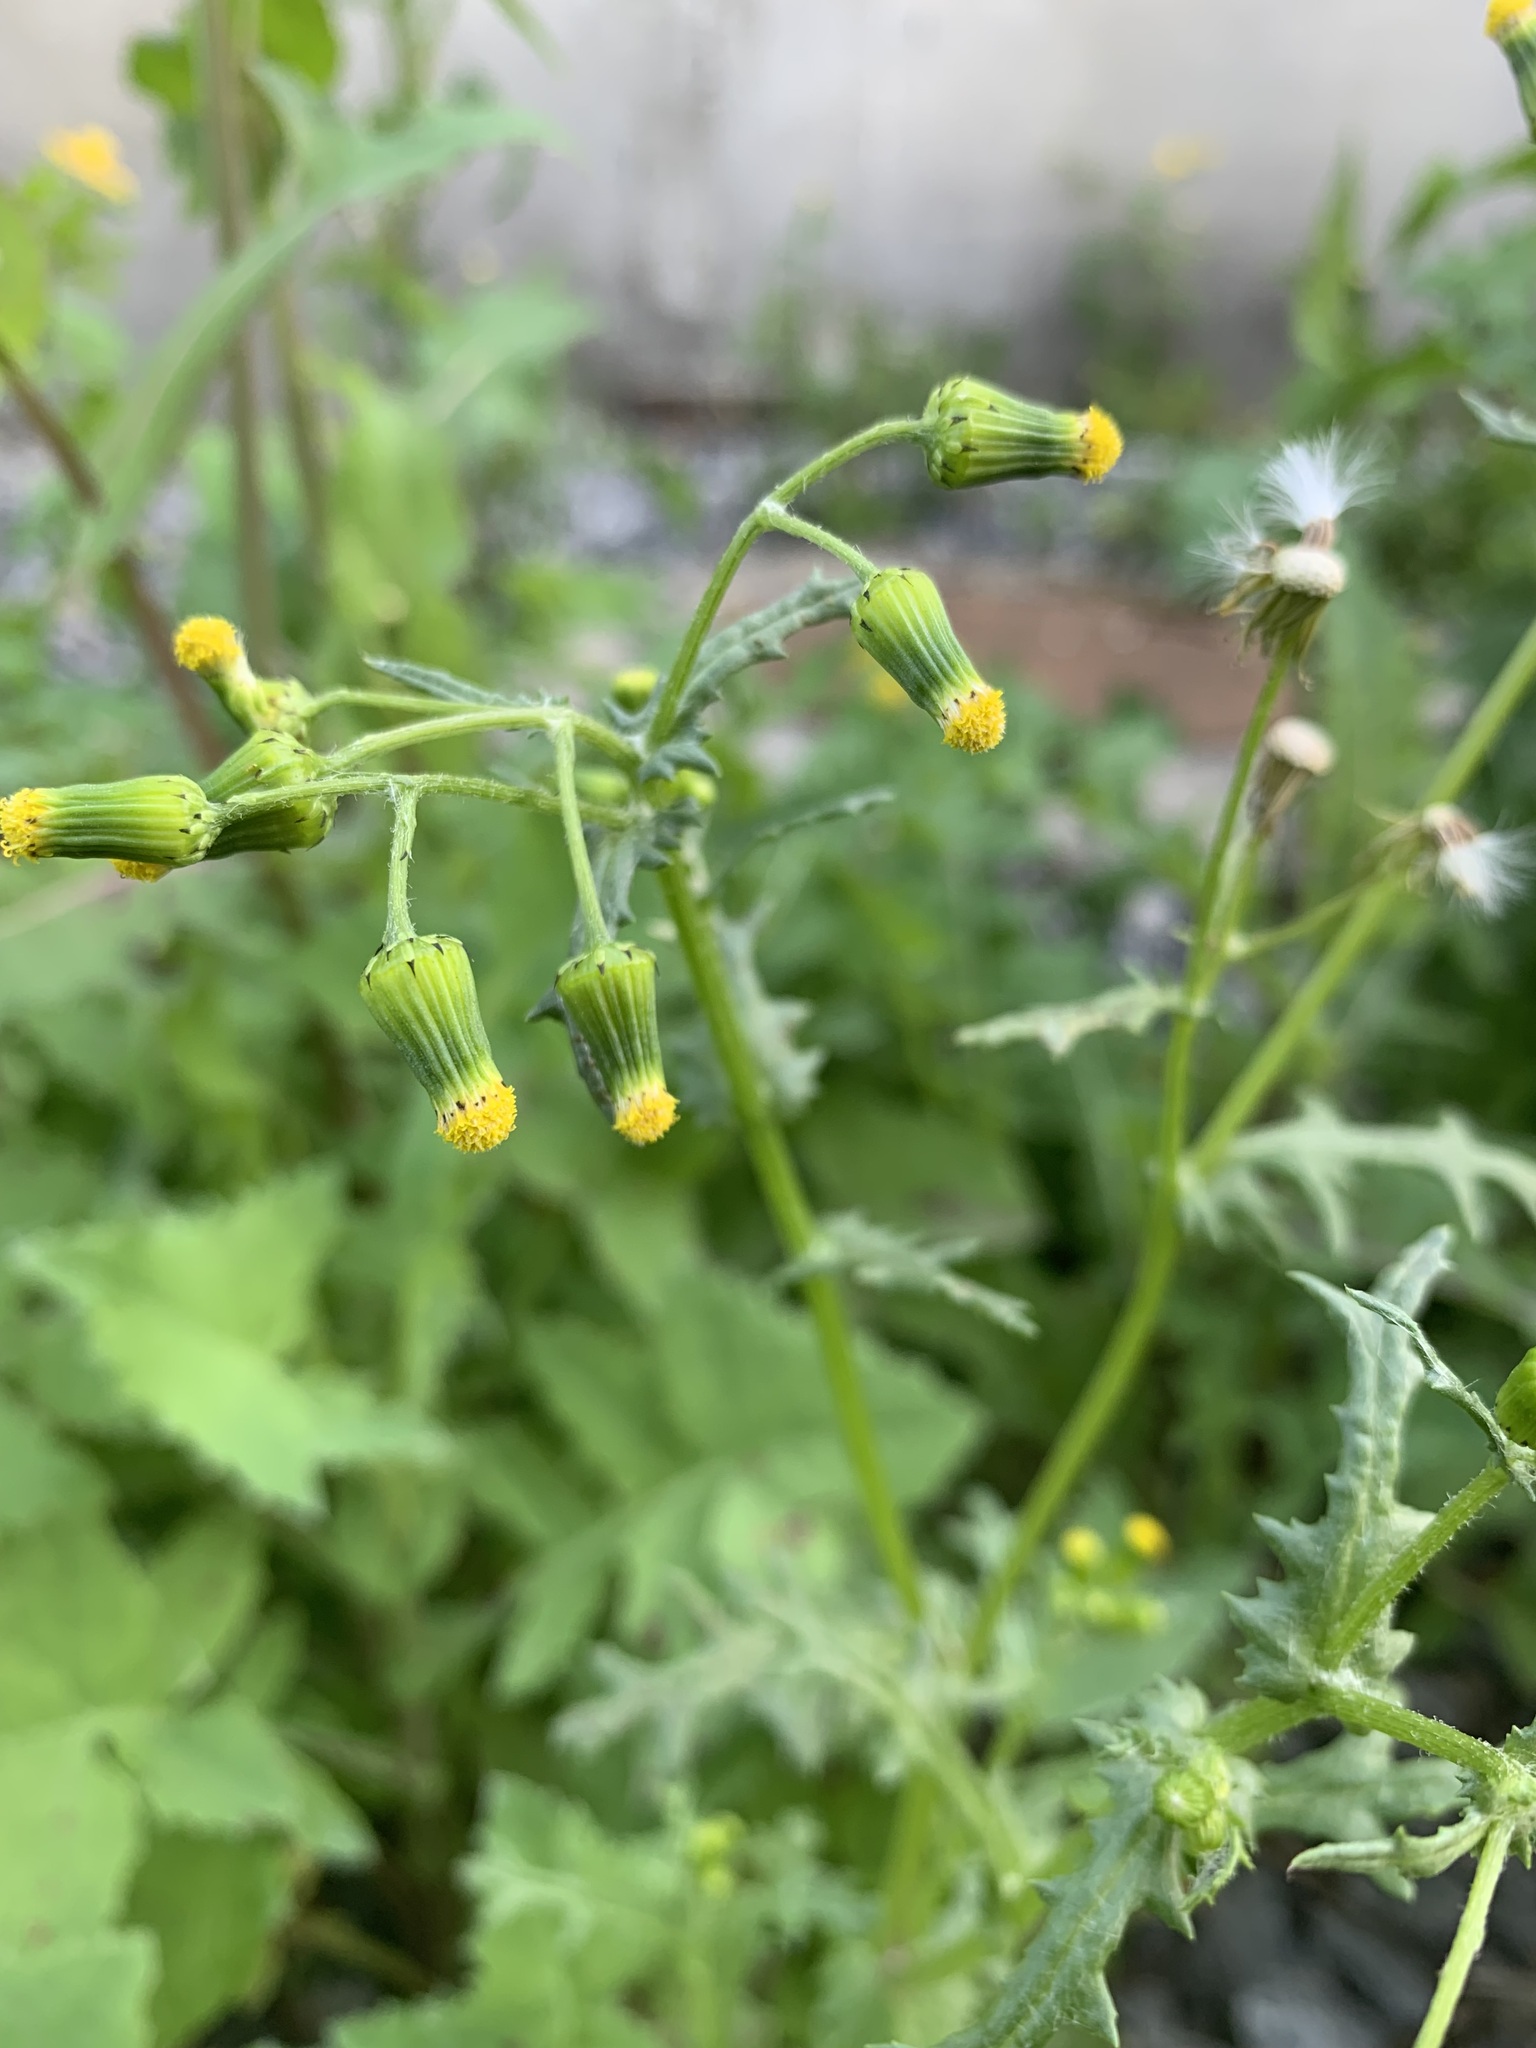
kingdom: Plantae
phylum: Tracheophyta
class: Magnoliopsida
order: Asterales
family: Asteraceae
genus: Senecio
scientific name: Senecio vulgaris
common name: Old-man-in-the-spring
